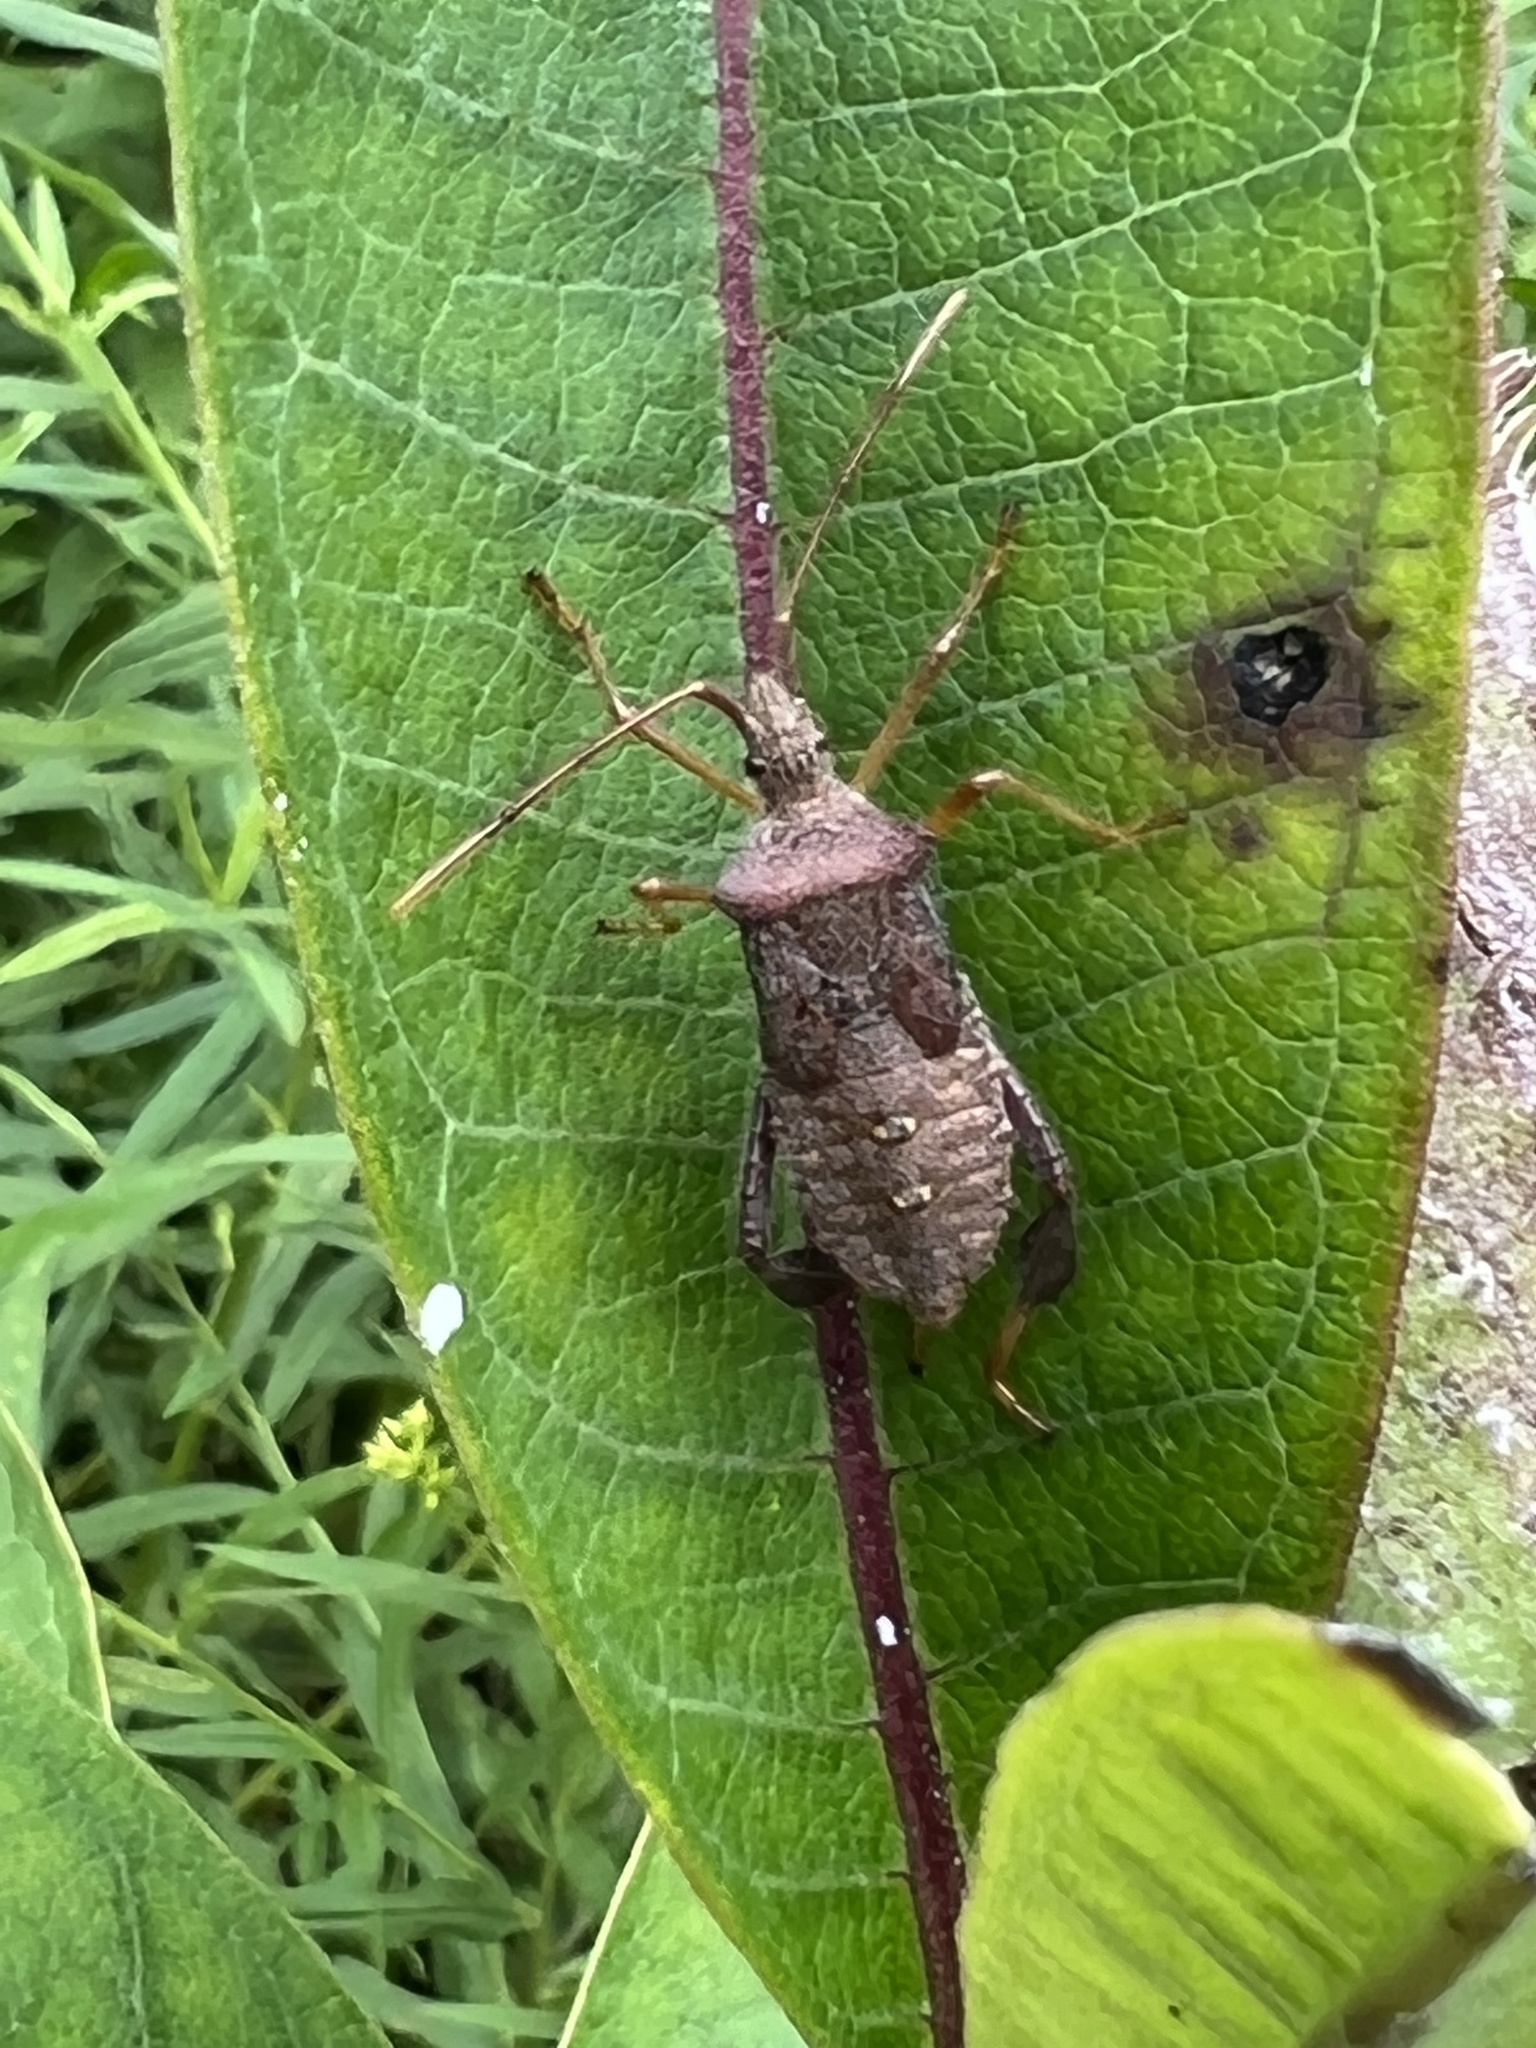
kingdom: Animalia
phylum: Arthropoda
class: Insecta
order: Hemiptera
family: Coreidae
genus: Leptoglossus
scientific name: Leptoglossus fulvicornis
